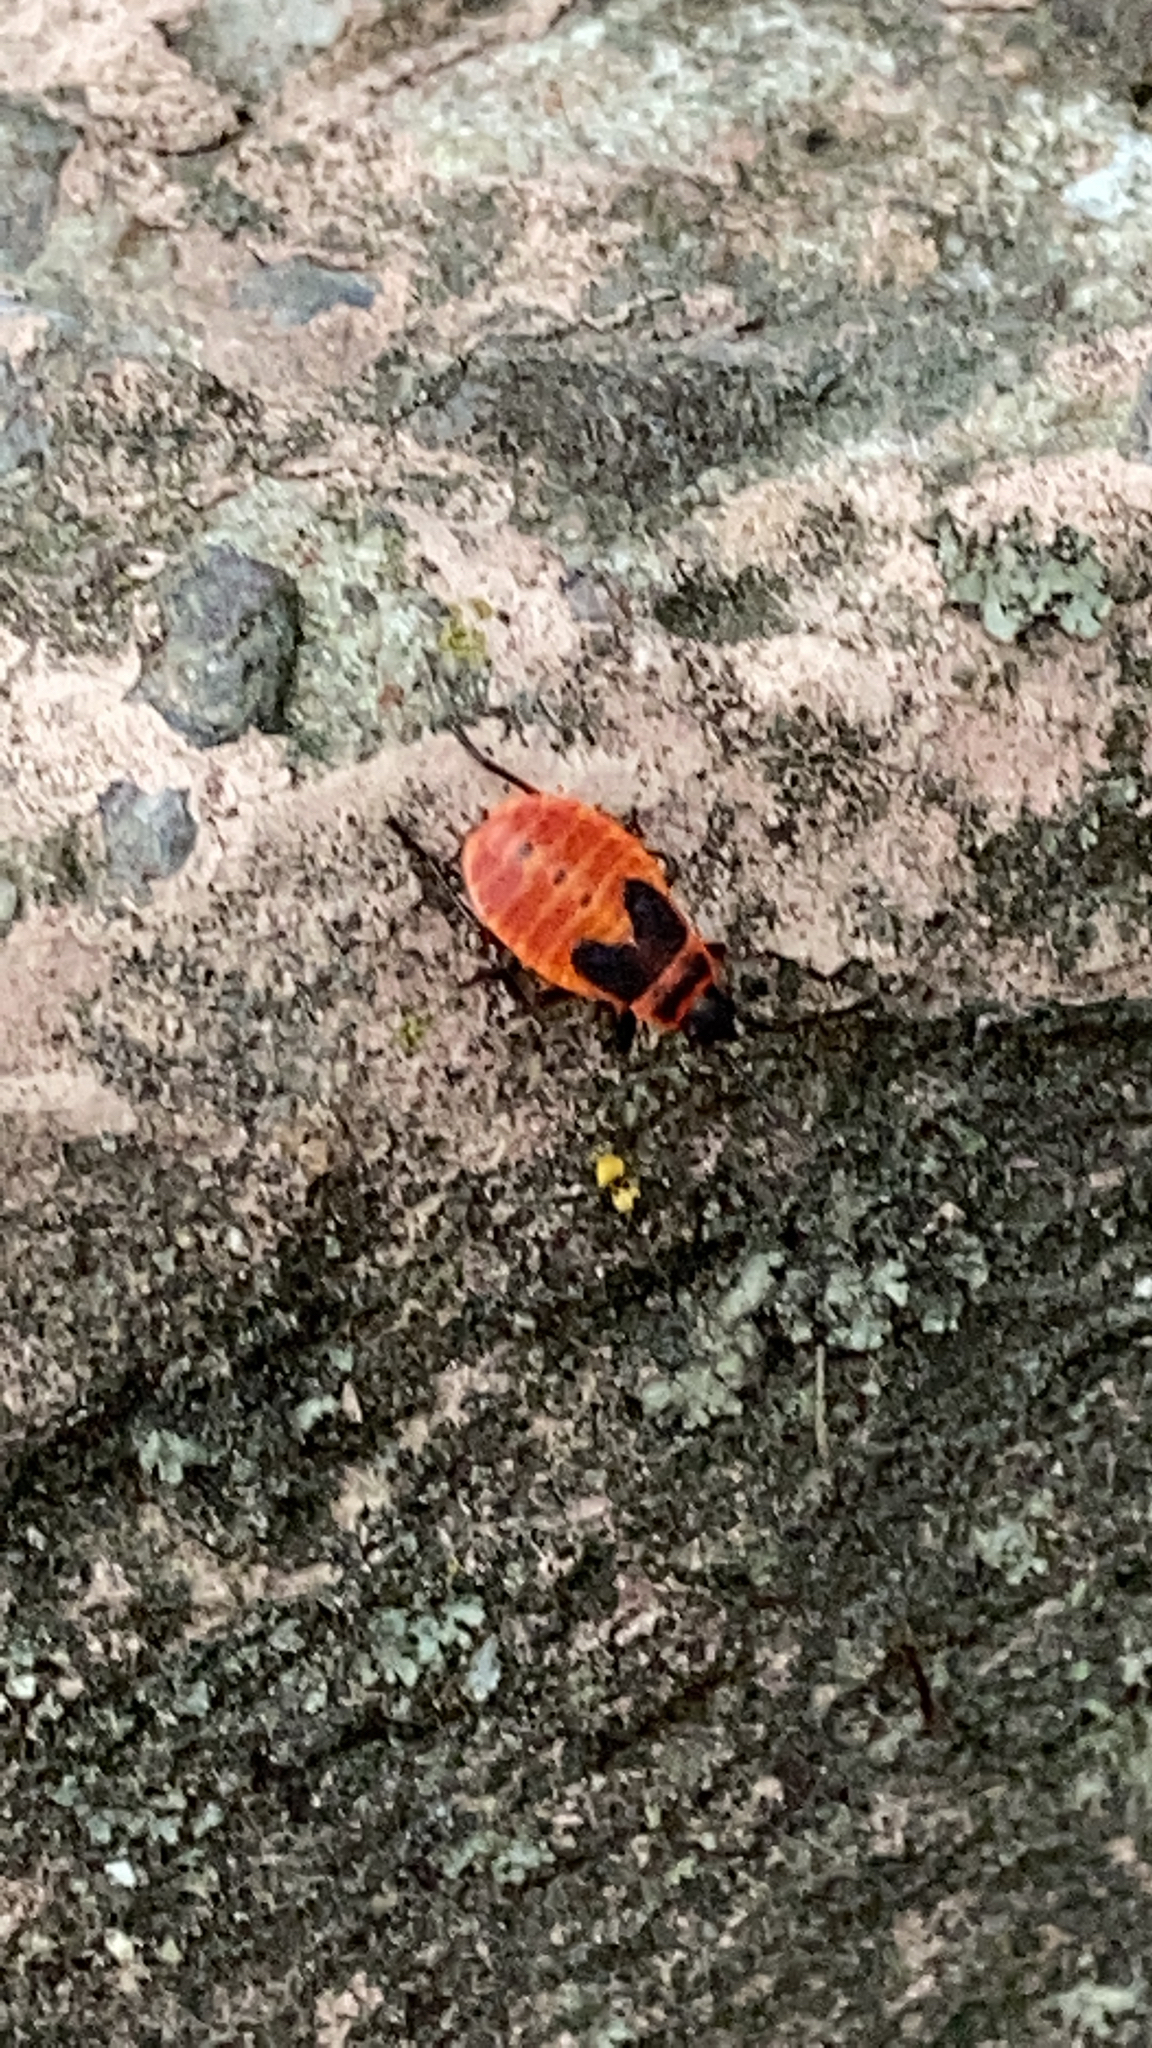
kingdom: Animalia
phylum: Arthropoda
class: Insecta
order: Hemiptera
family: Pyrrhocoridae
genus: Pyrrhocoris
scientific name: Pyrrhocoris apterus
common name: Firebug
